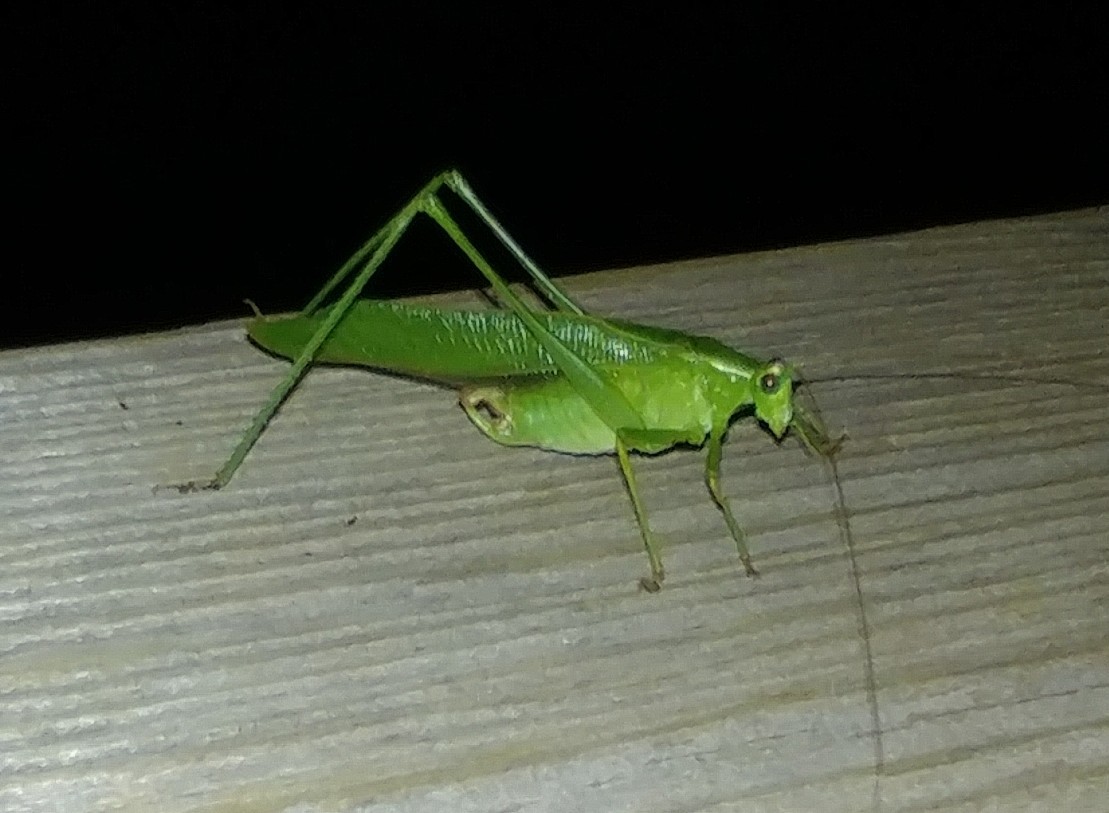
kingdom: Animalia
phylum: Arthropoda
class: Insecta
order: Orthoptera
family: Tettigoniidae
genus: Scudderia
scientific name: Scudderia furcata
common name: Fork-tailed bush katydid
